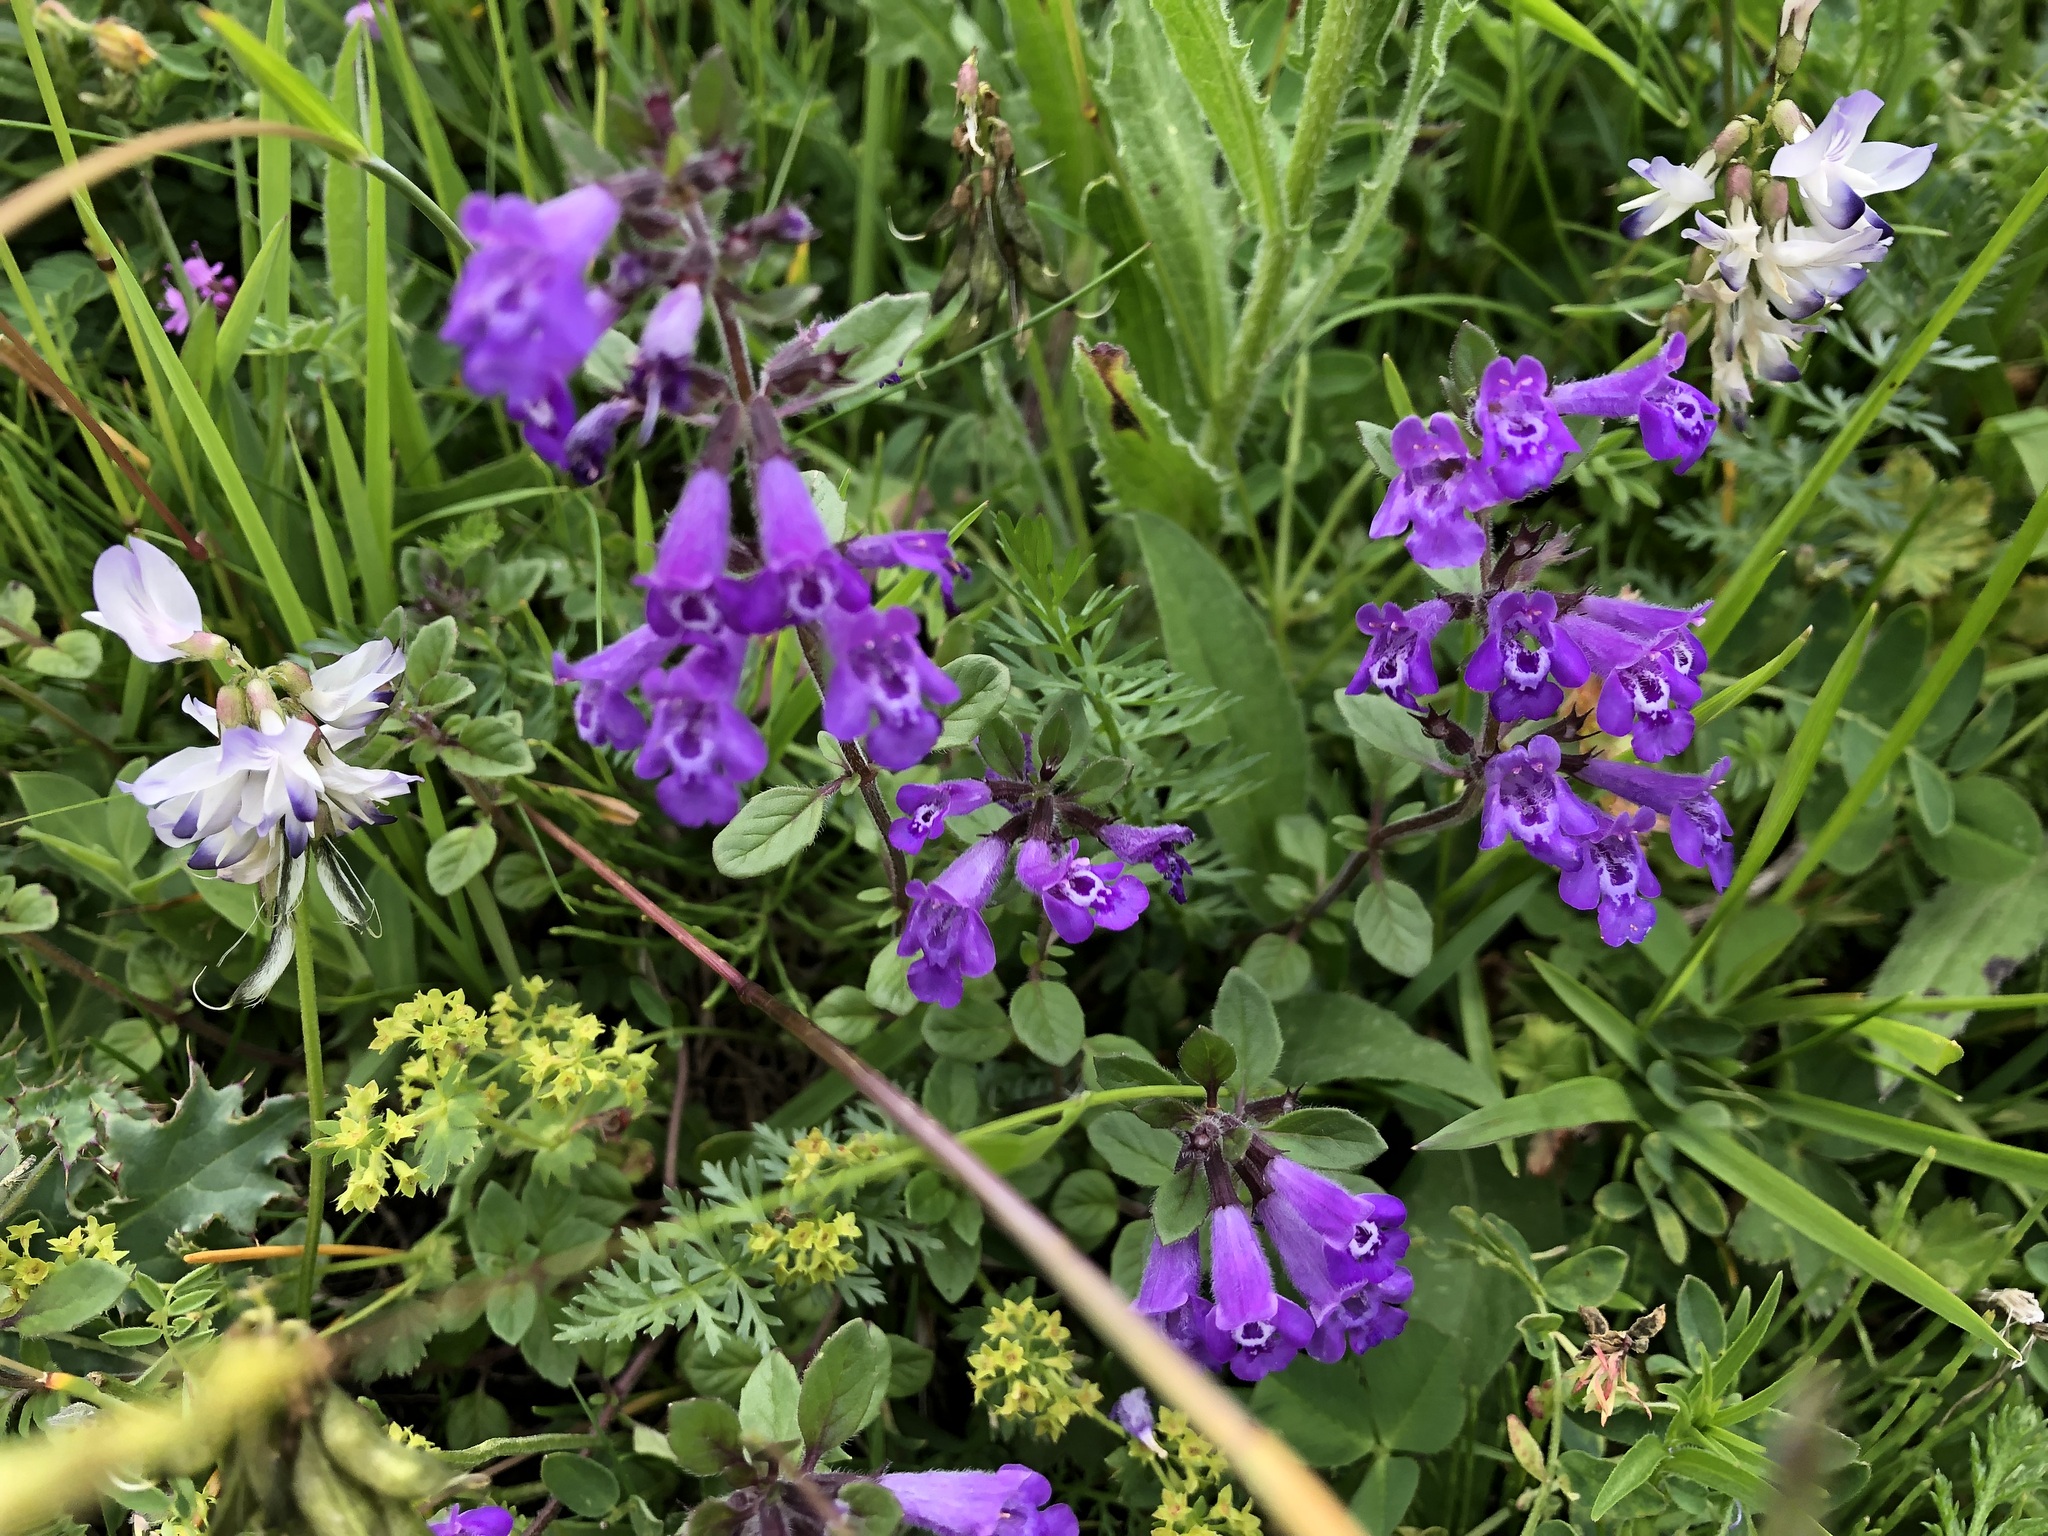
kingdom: Plantae
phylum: Tracheophyta
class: Magnoliopsida
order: Lamiales
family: Lamiaceae
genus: Clinopodium
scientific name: Clinopodium alpinum
